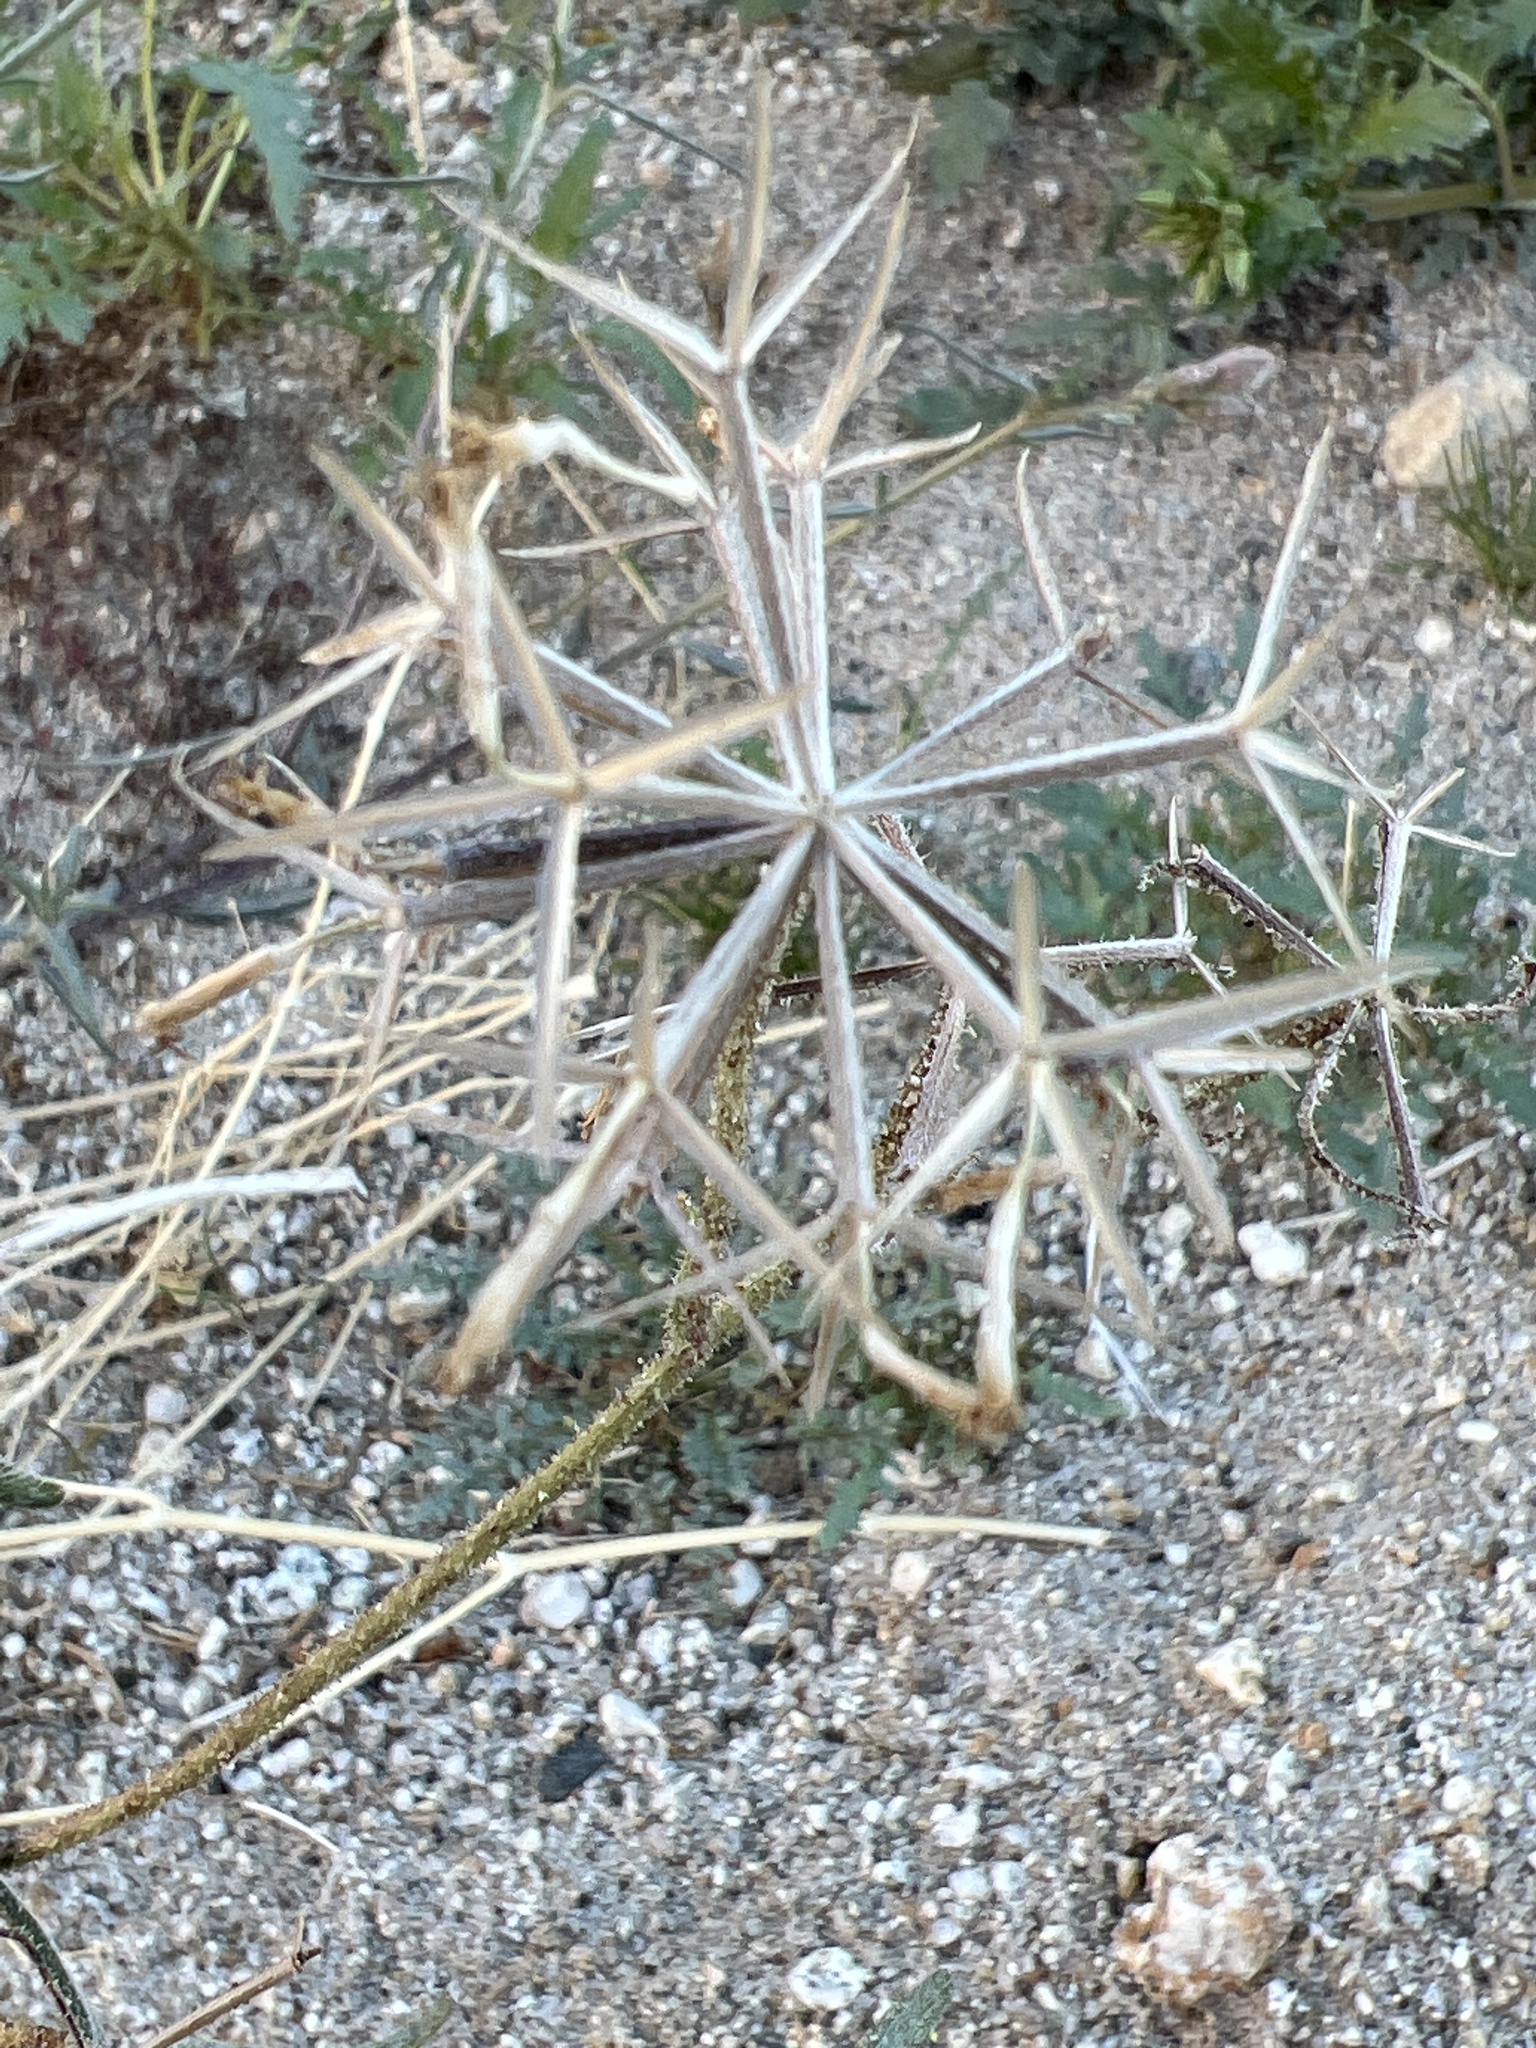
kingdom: Plantae
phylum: Tracheophyta
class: Magnoliopsida
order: Asterales
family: Asteraceae
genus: Palafoxia
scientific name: Palafoxia arida
